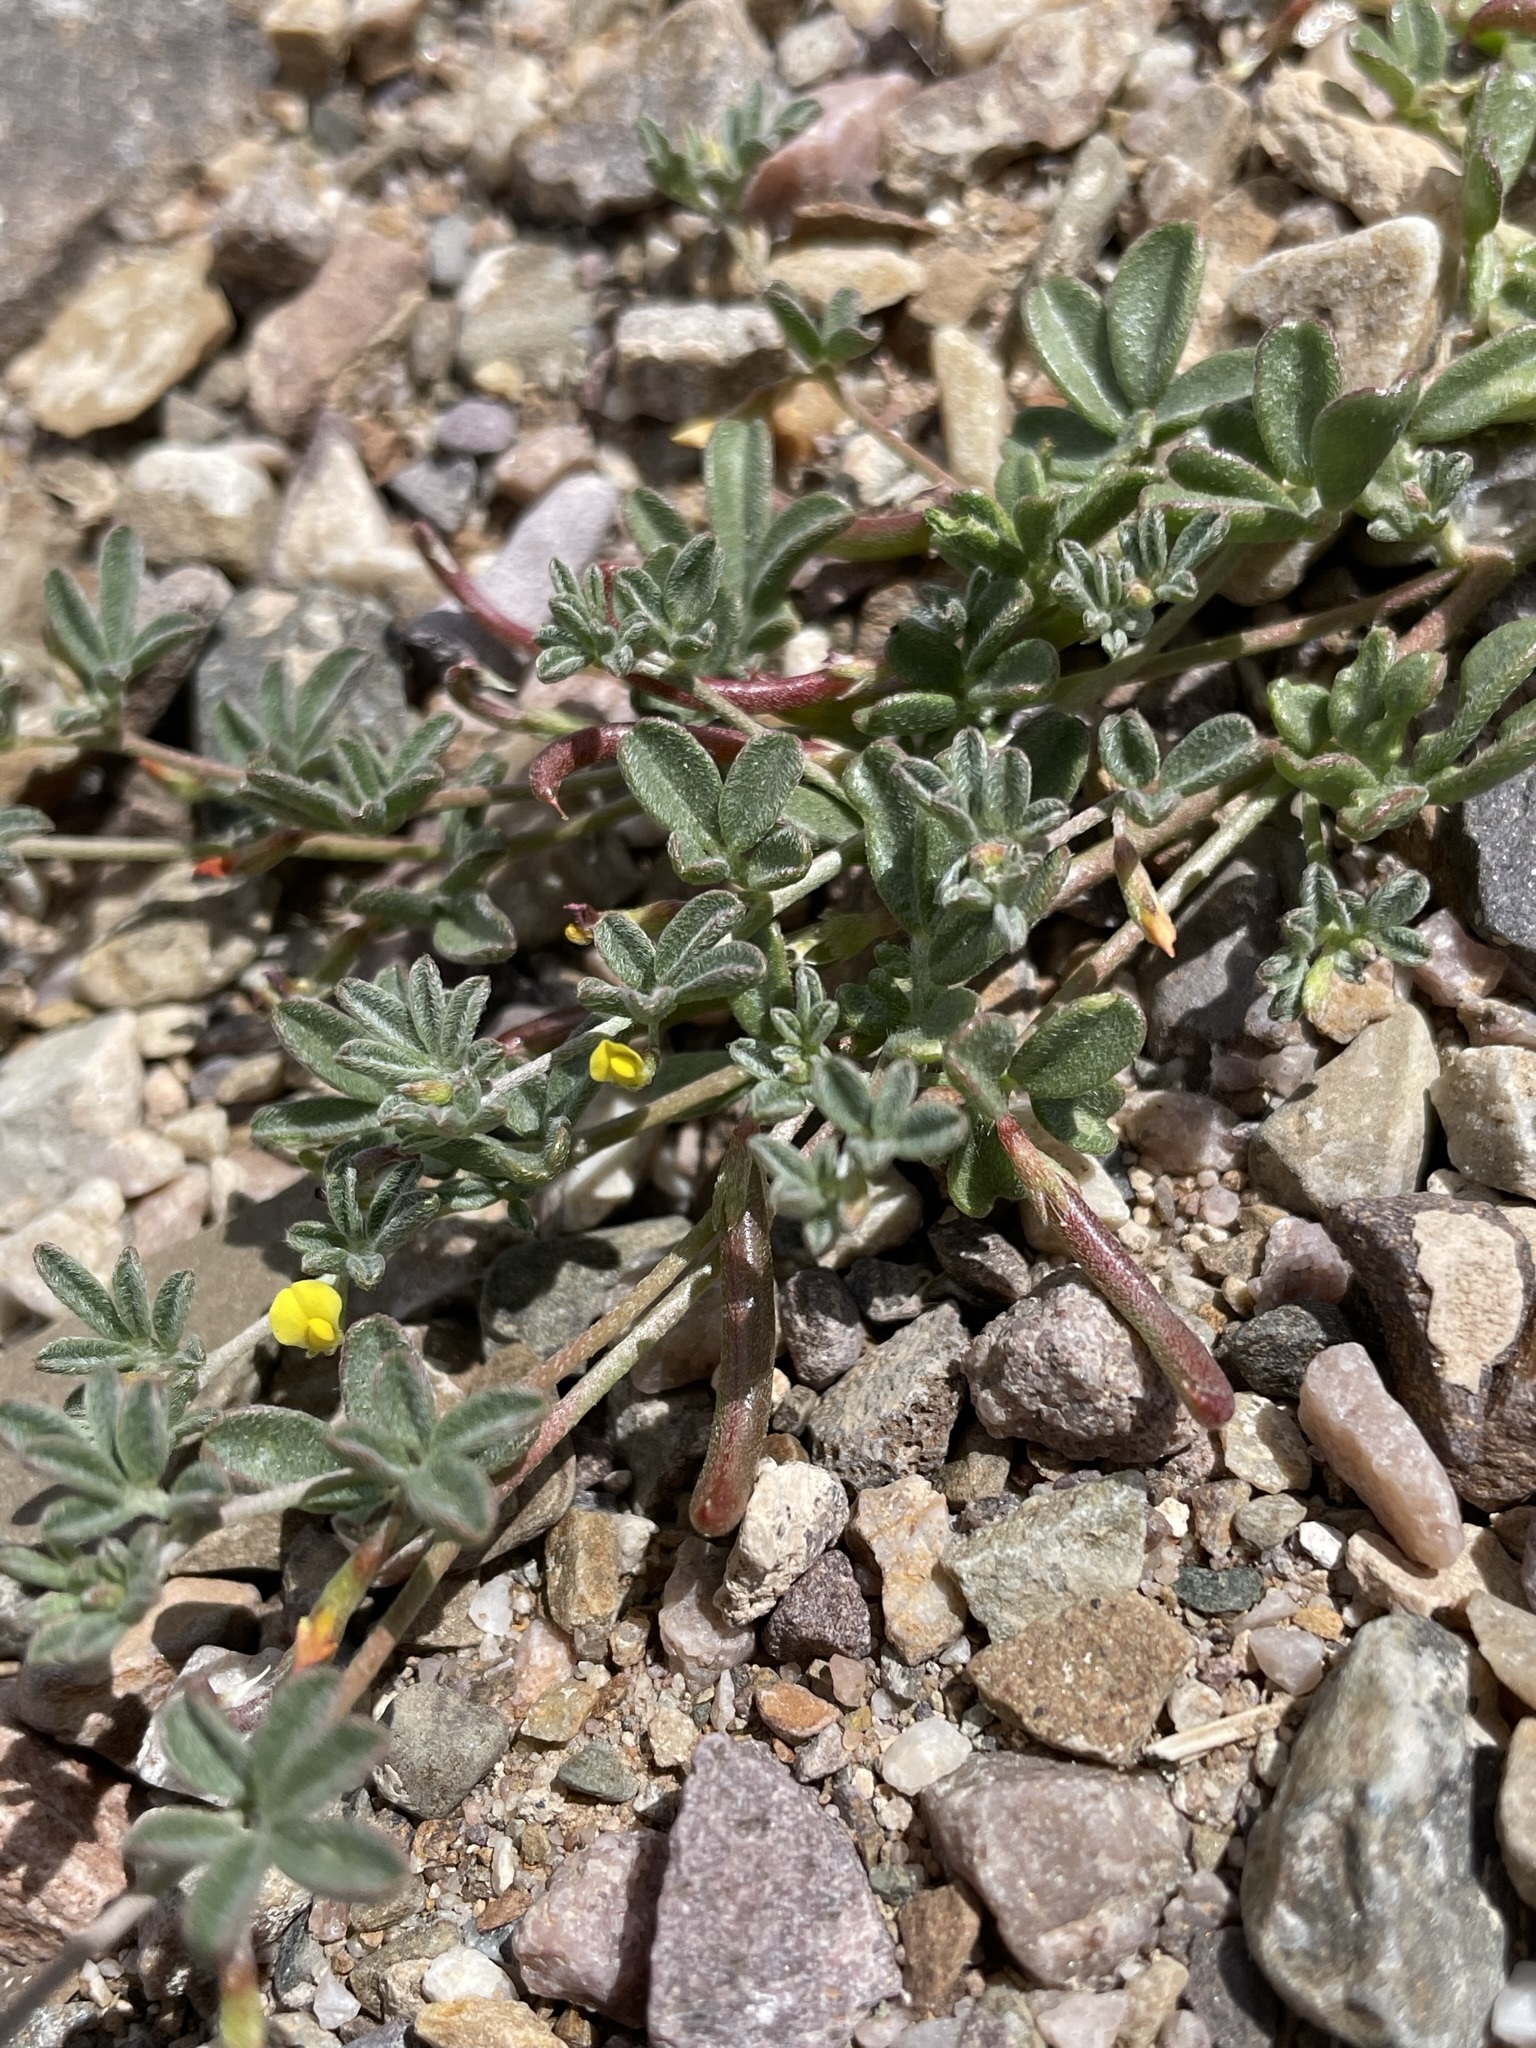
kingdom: Plantae
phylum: Tracheophyta
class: Magnoliopsida
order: Fabales
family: Fabaceae
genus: Acmispon
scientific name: Acmispon strigosus
